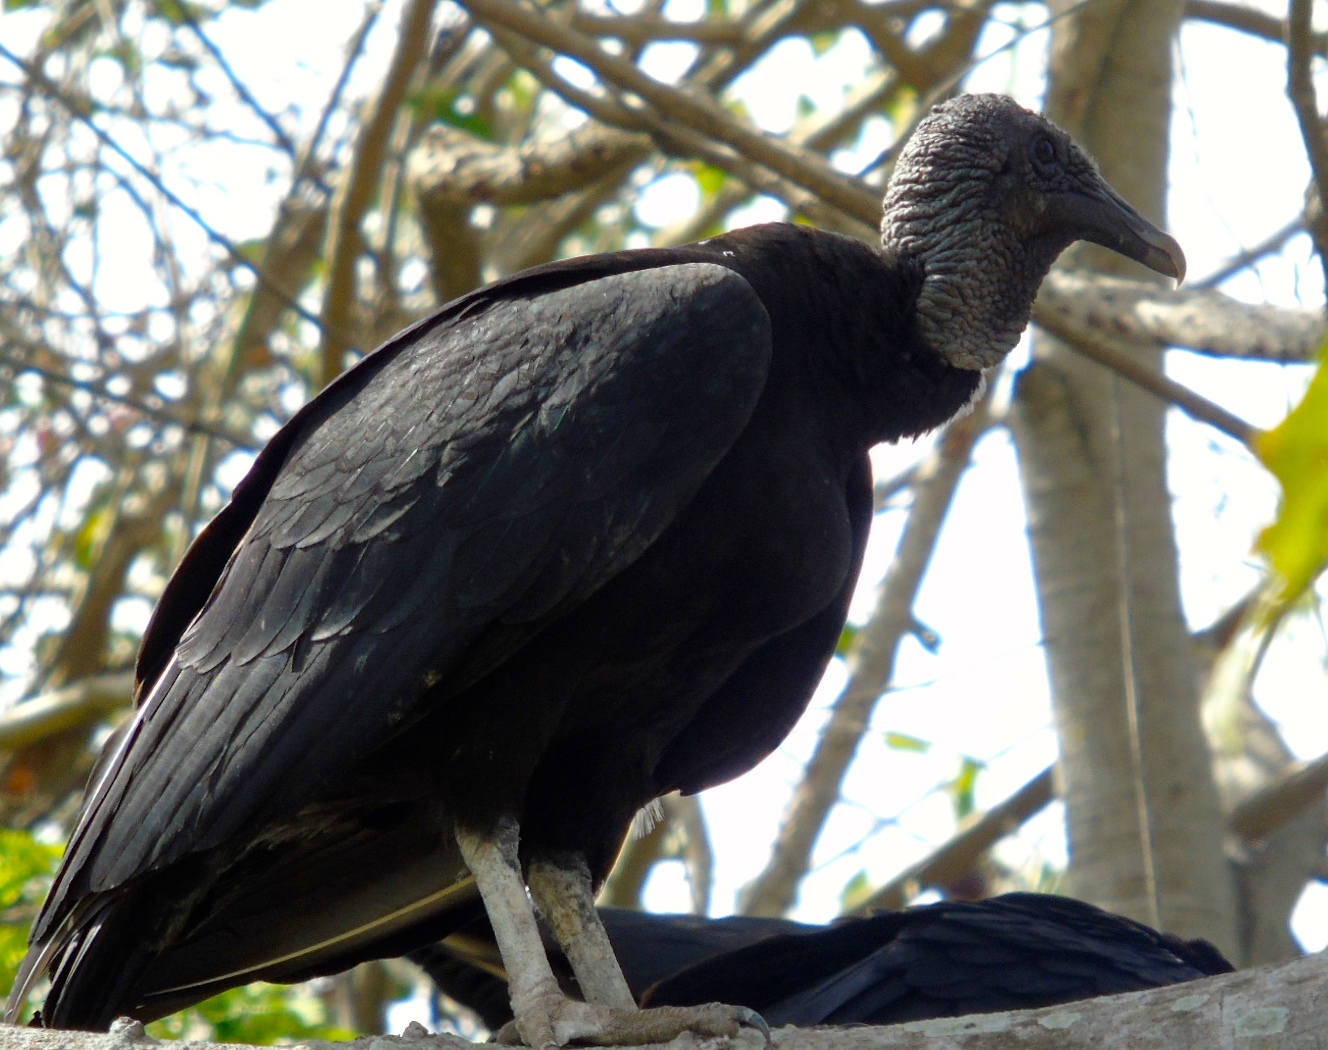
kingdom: Animalia
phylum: Chordata
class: Aves
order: Accipitriformes
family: Cathartidae
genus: Coragyps
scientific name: Coragyps atratus
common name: Black vulture
